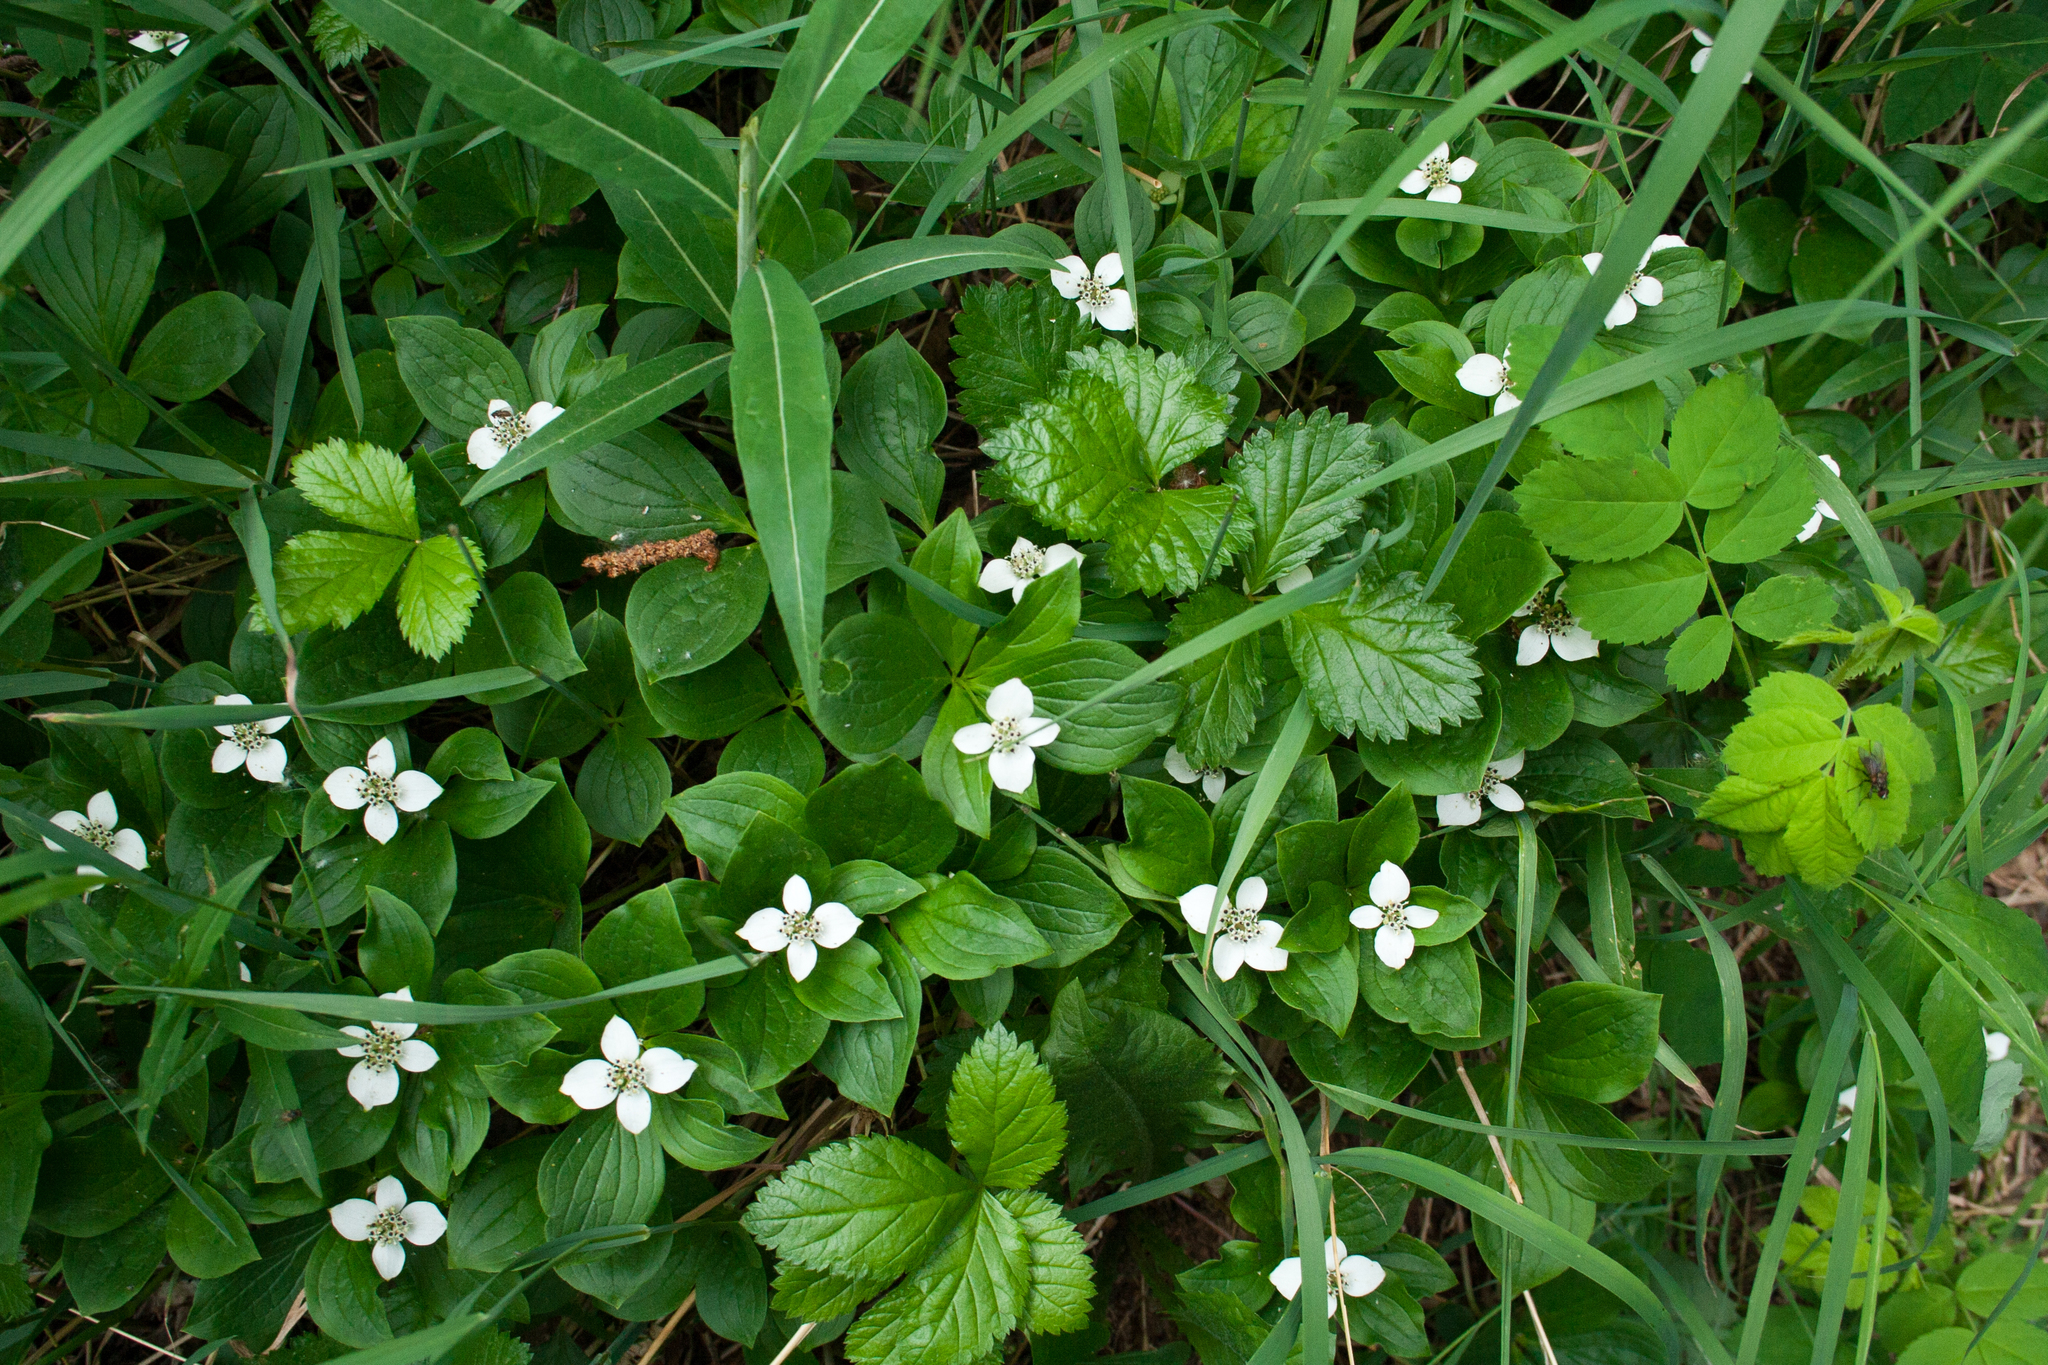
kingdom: Plantae
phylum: Tracheophyta
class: Magnoliopsida
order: Cornales
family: Cornaceae
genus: Cornus
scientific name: Cornus canadensis
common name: Creeping dogwood
